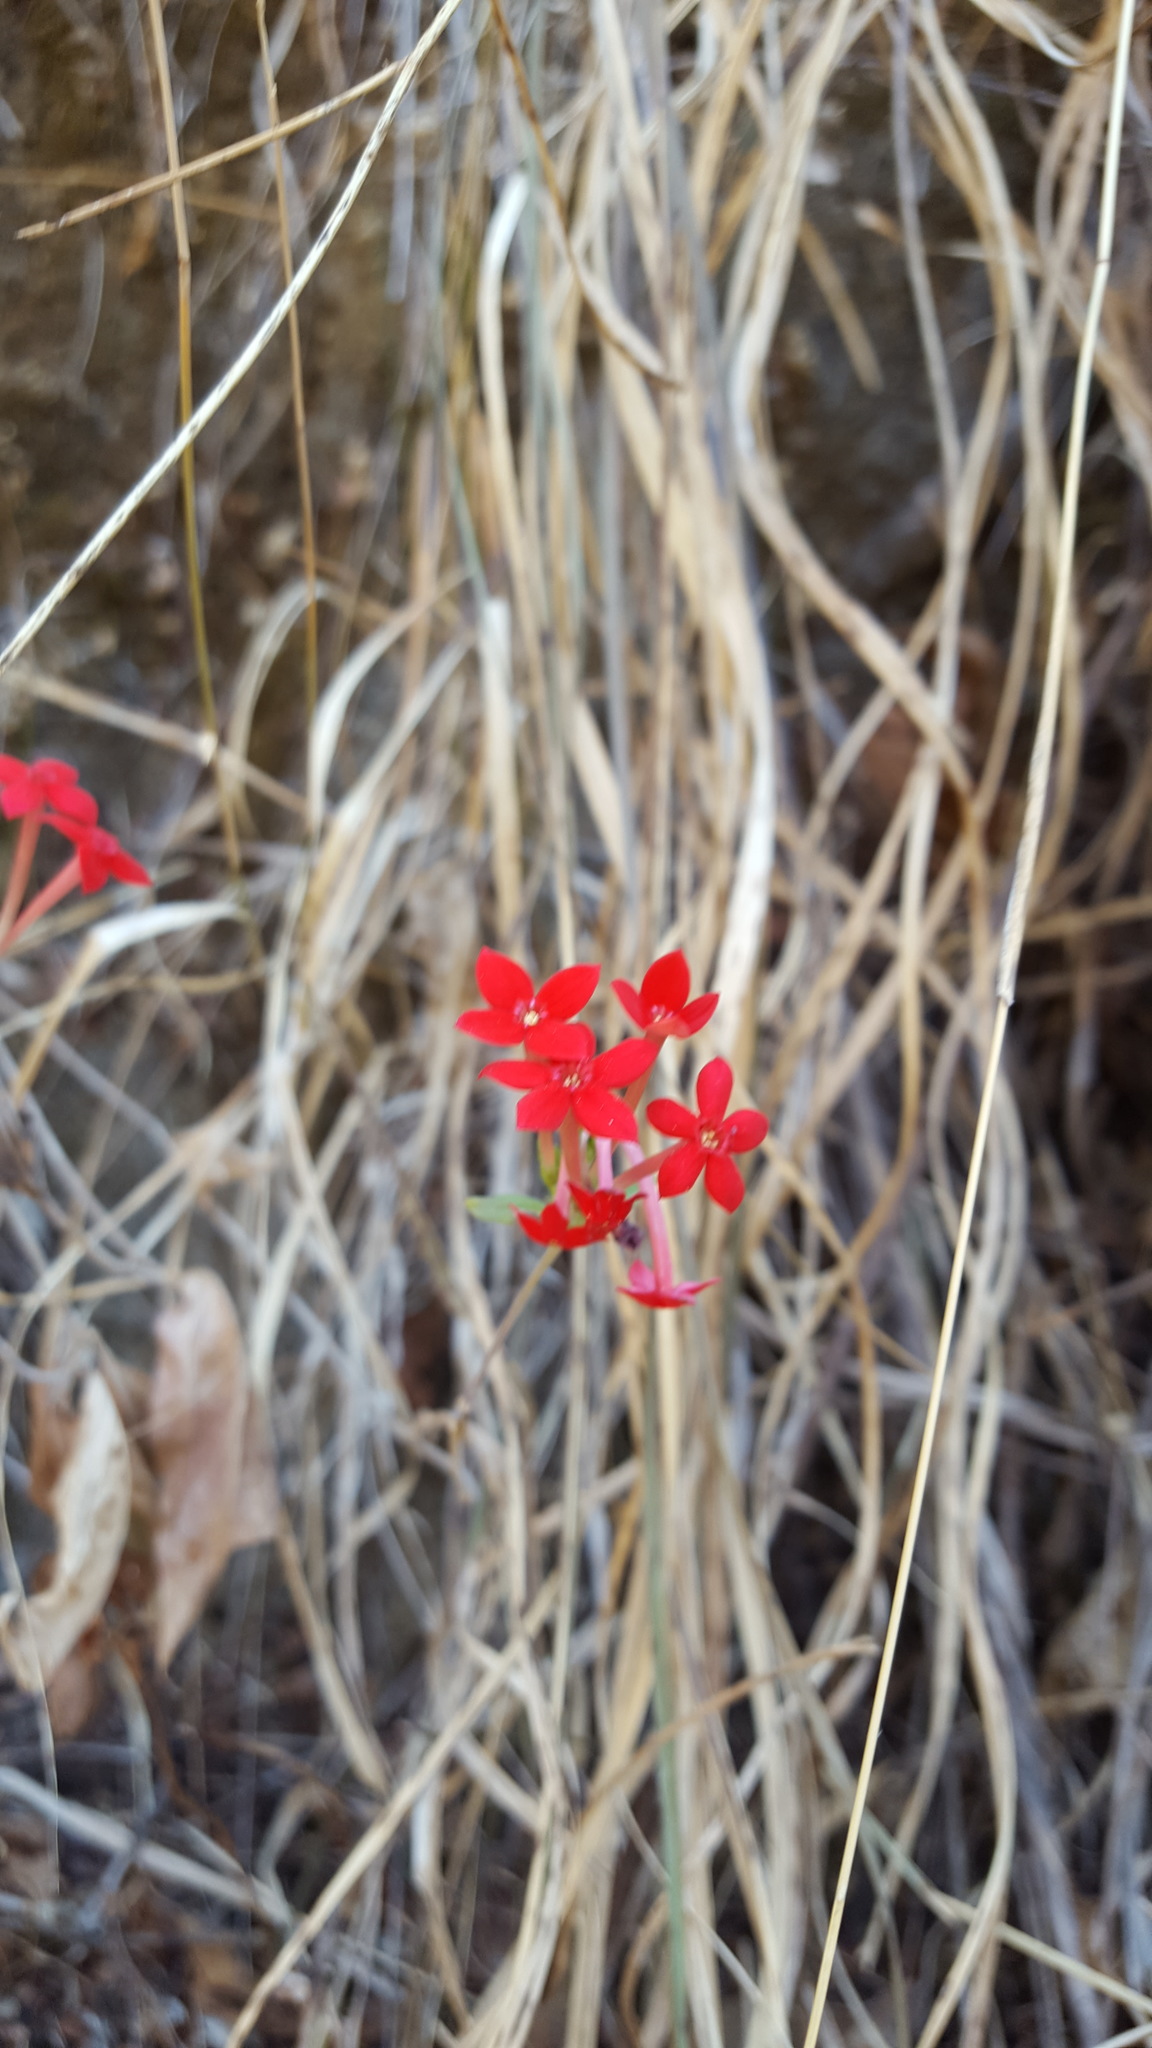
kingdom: Plantae
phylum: Tracheophyta
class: Magnoliopsida
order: Gentianales
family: Rubiaceae
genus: Bouvardia
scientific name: Bouvardia viminalis
